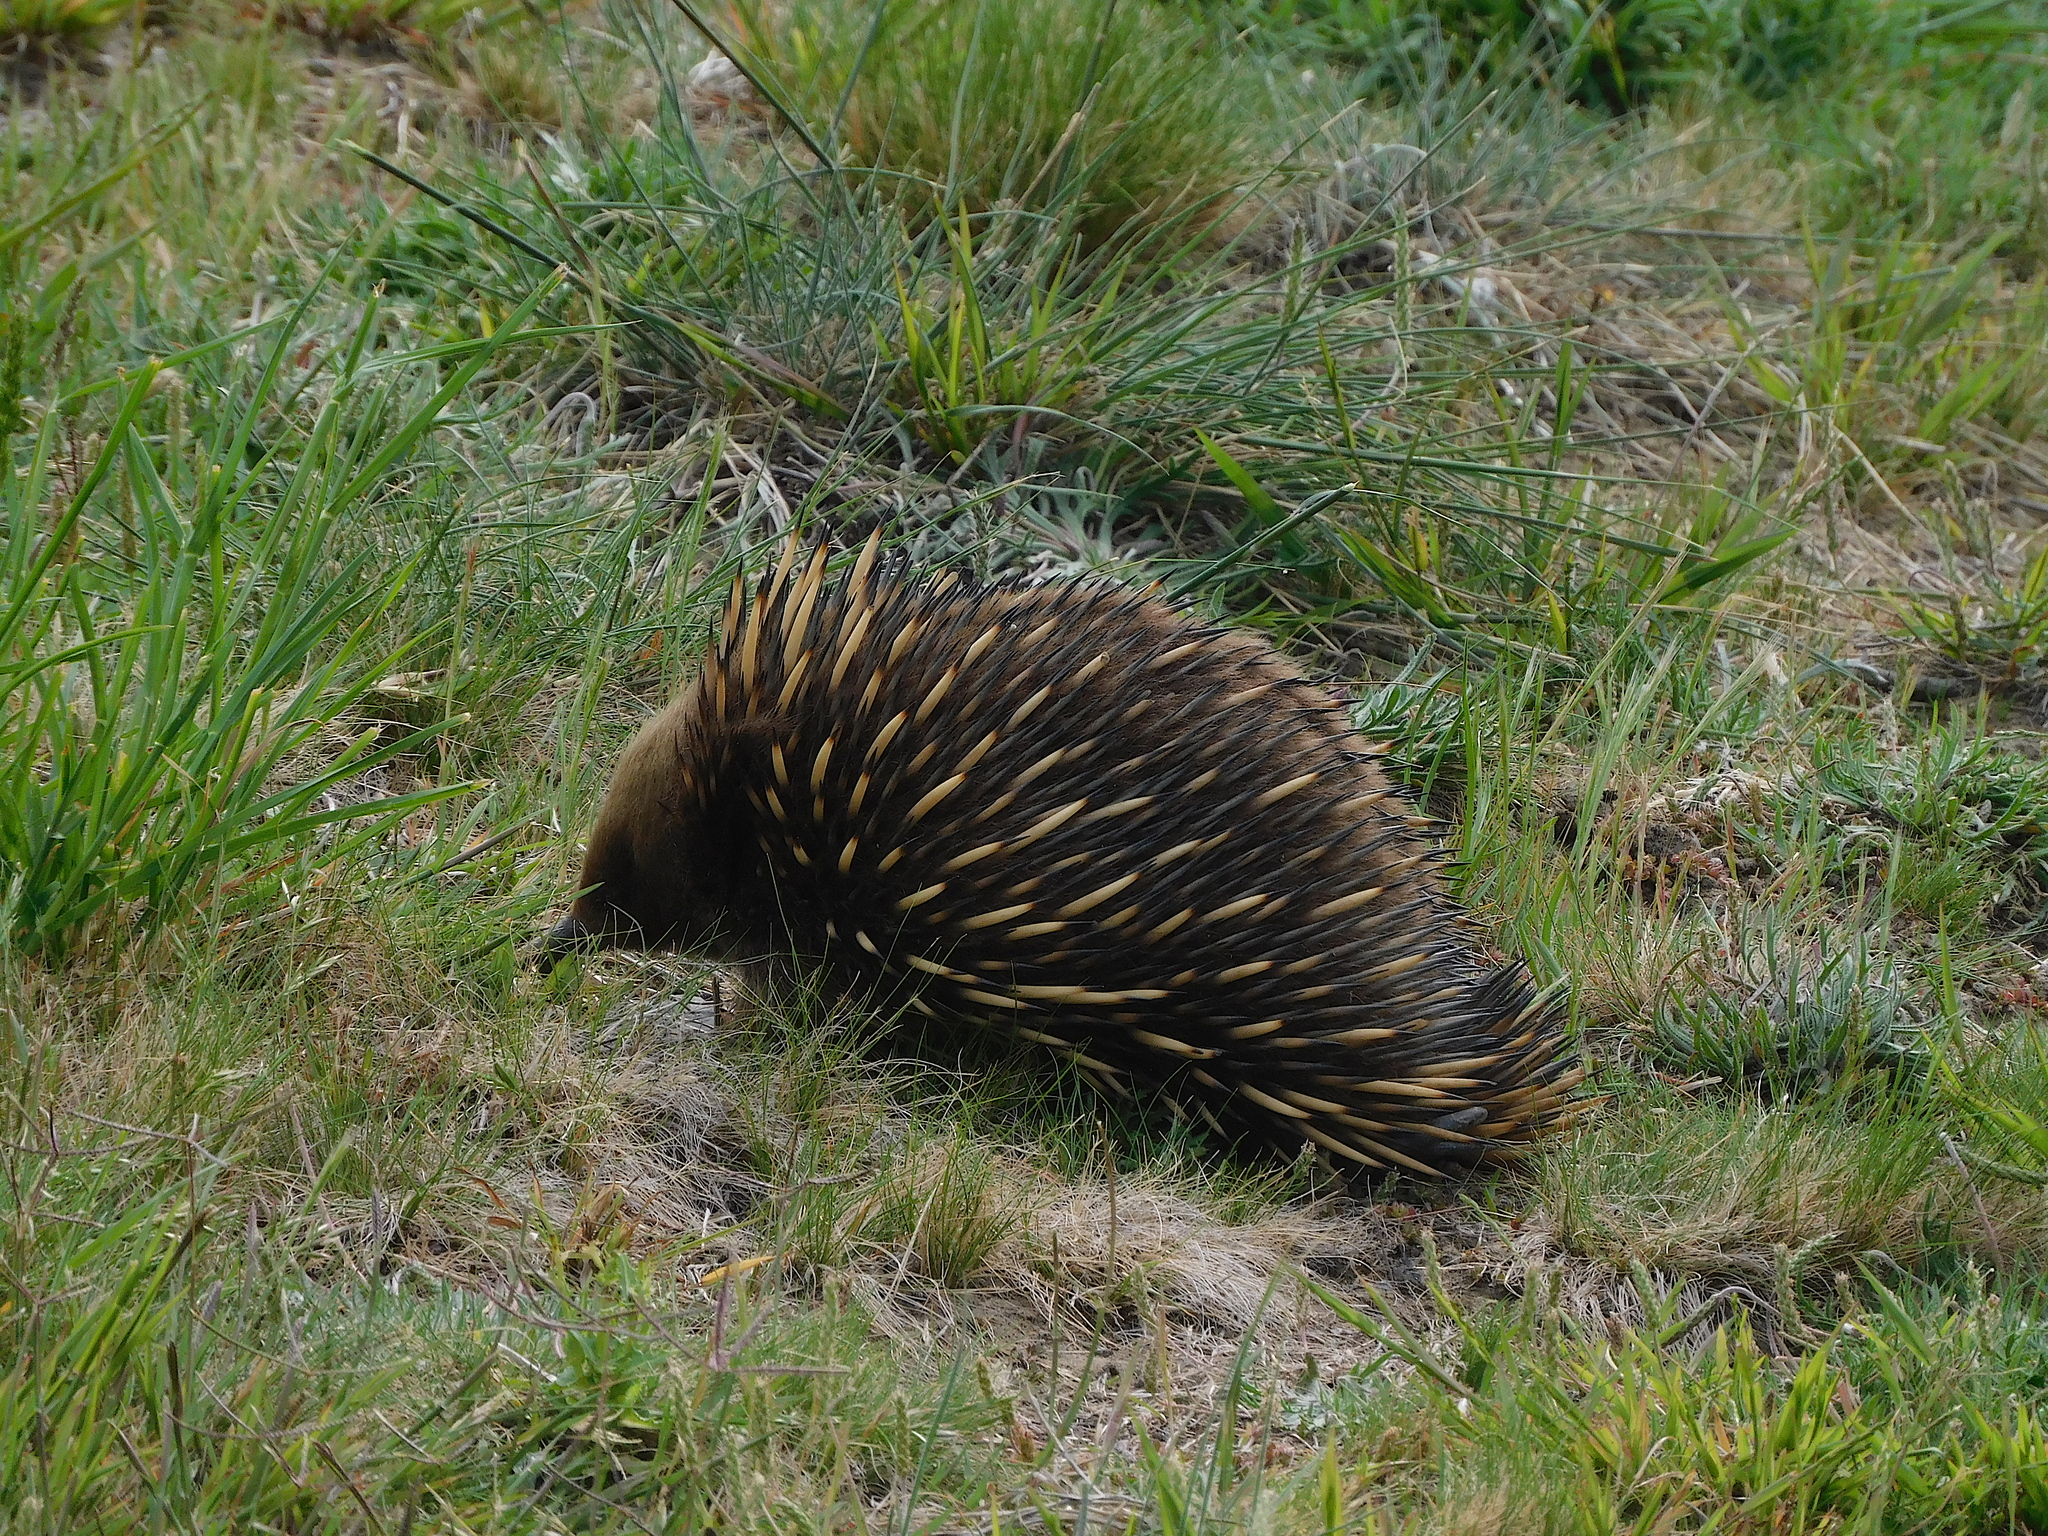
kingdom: Animalia
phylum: Chordata
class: Mammalia
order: Monotremata
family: Tachyglossidae
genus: Tachyglossus
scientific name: Tachyglossus aculeatus
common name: Short-beaked echidna
